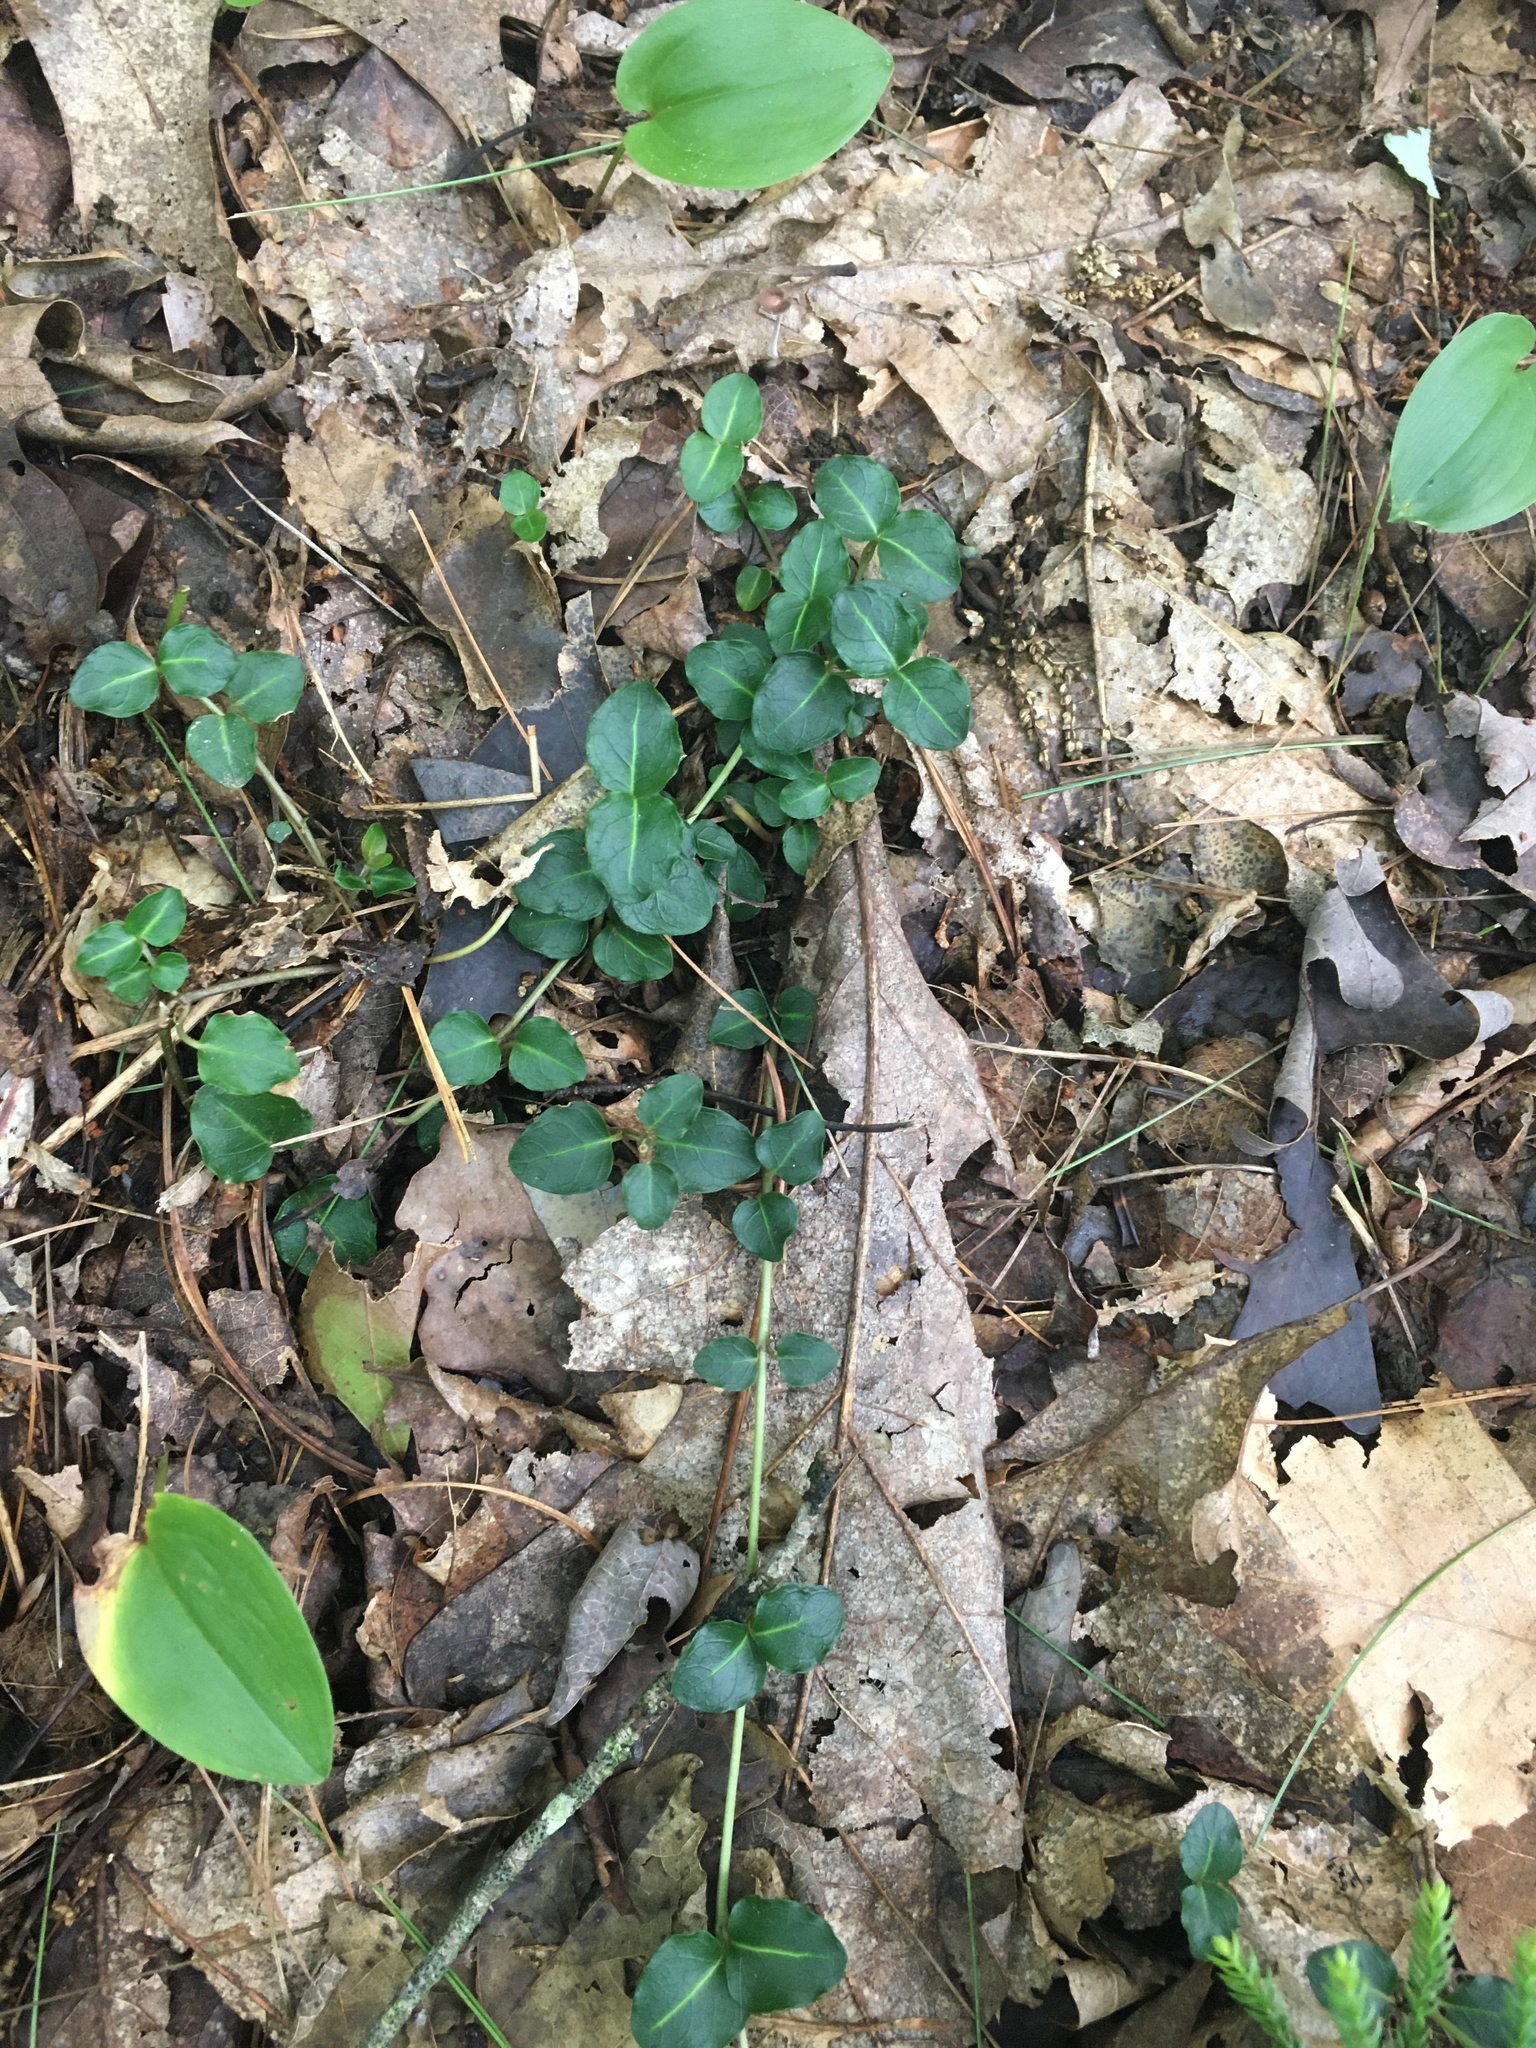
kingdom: Plantae
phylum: Tracheophyta
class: Magnoliopsida
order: Gentianales
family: Rubiaceae
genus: Mitchella
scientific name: Mitchella repens
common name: Partridge-berry
